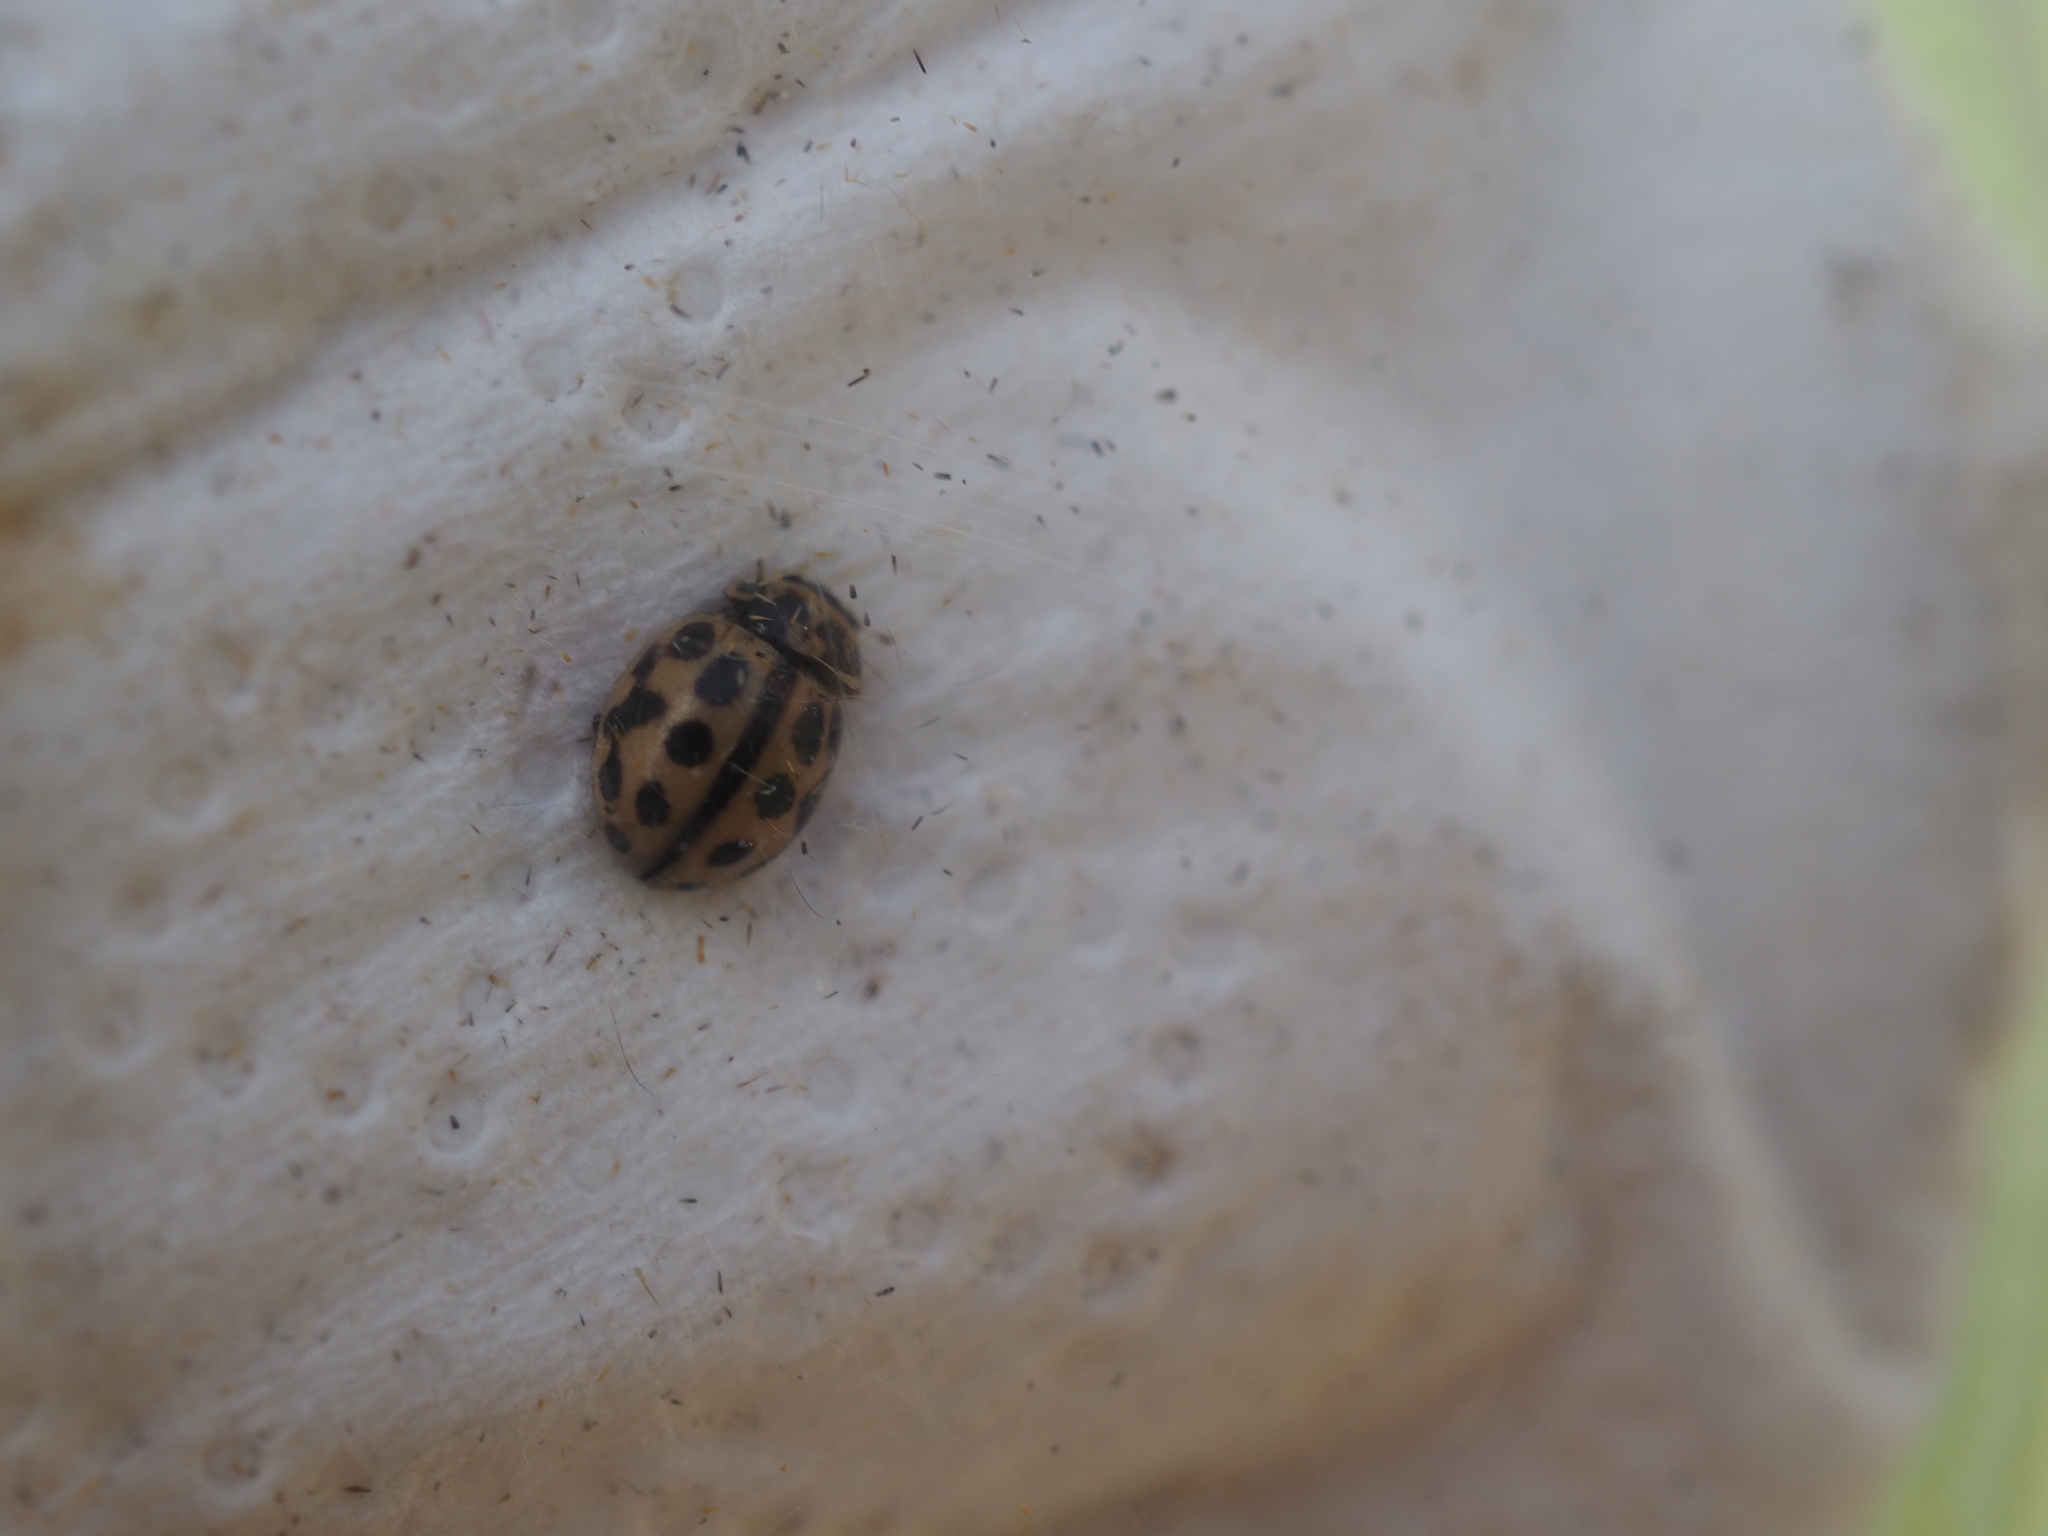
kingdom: Animalia
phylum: Arthropoda
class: Insecta
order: Coleoptera
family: Coccinellidae
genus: Tytthaspis
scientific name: Tytthaspis sedecimpunctata
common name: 16-spot ladybird
